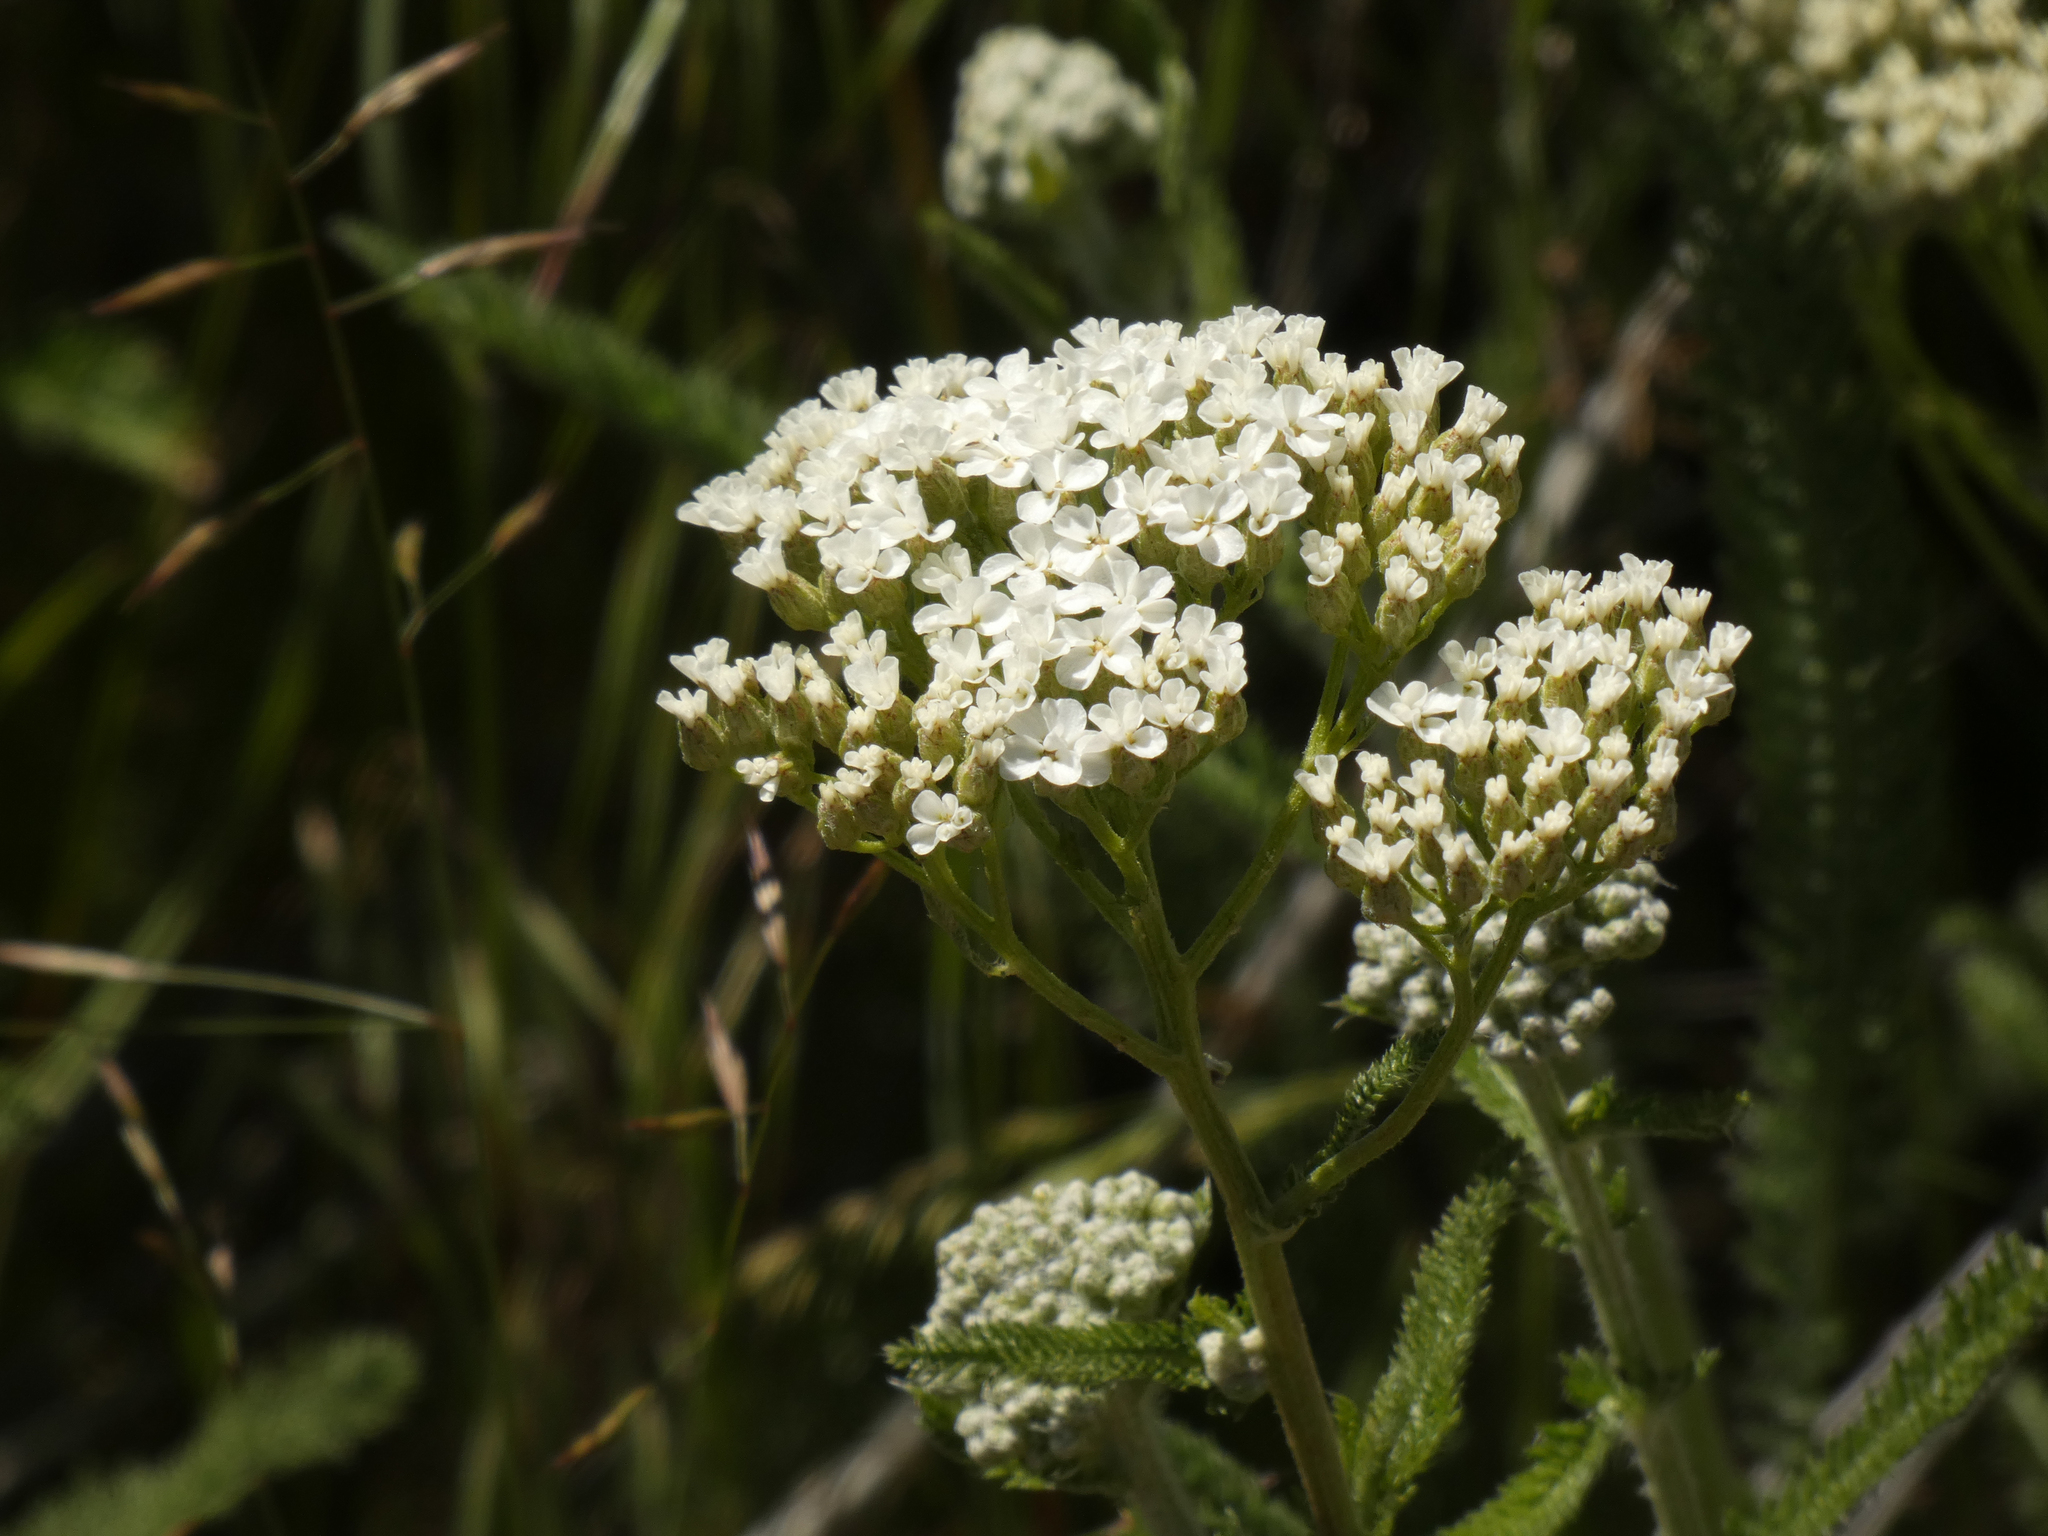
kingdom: Plantae
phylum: Tracheophyta
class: Magnoliopsida
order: Asterales
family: Asteraceae
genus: Achillea
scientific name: Achillea millefolium
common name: Yarrow
